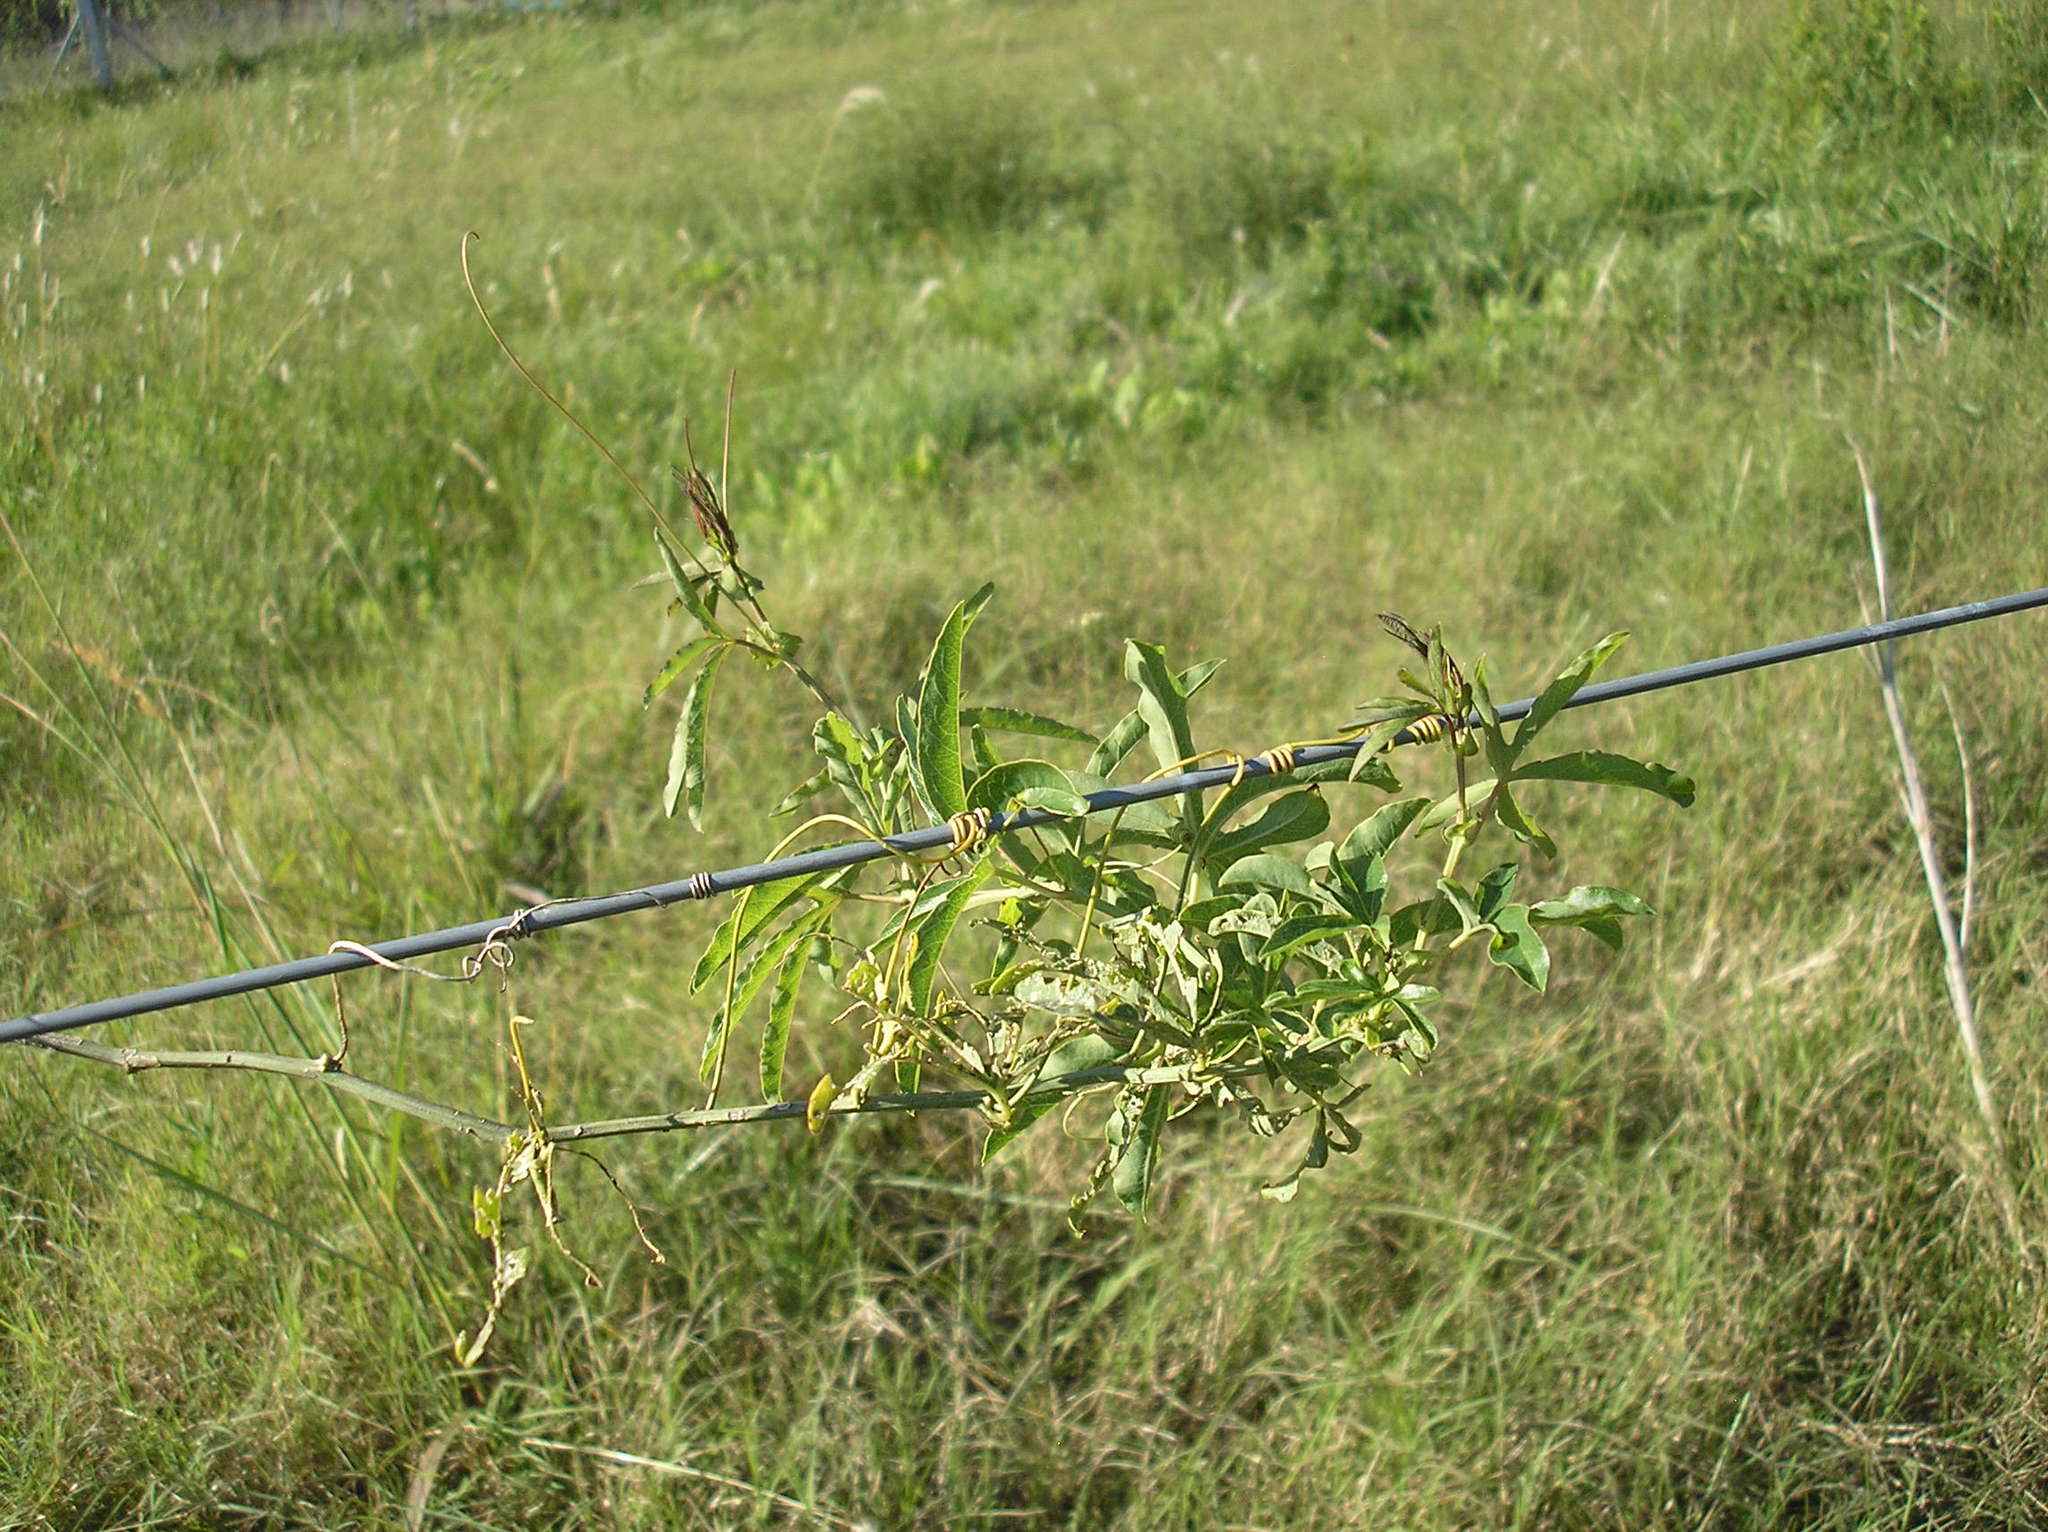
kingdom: Plantae
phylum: Tracheophyta
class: Magnoliopsida
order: Malpighiales
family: Passifloraceae
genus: Passiflora
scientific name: Passiflora caerulea
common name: Blue passionflower
